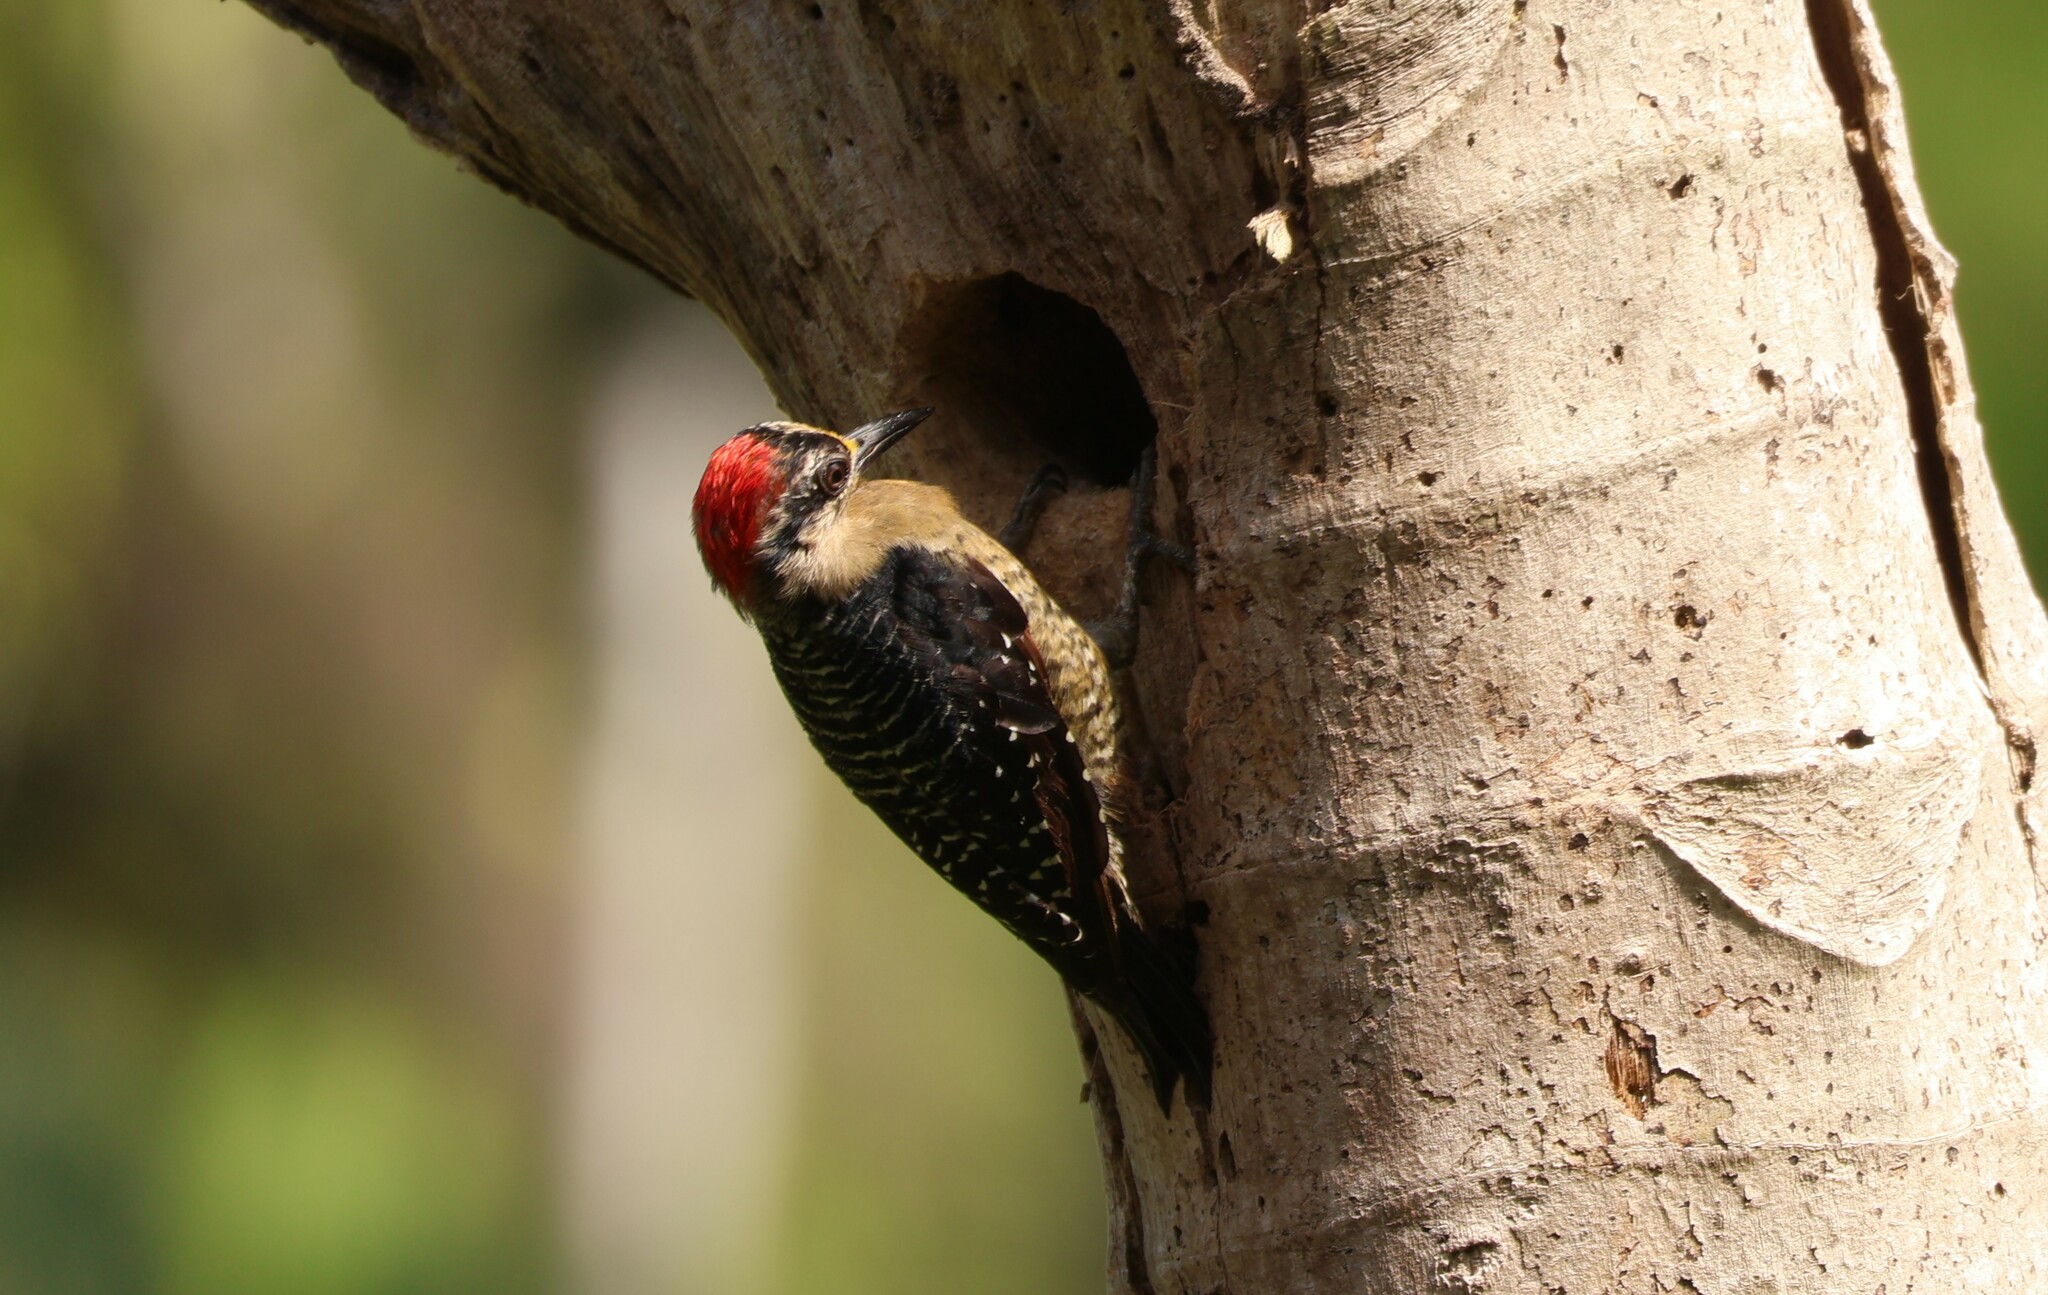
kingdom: Animalia
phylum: Chordata
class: Aves
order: Piciformes
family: Picidae
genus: Melanerpes
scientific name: Melanerpes pucherani
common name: Black-cheeked woodpecker
